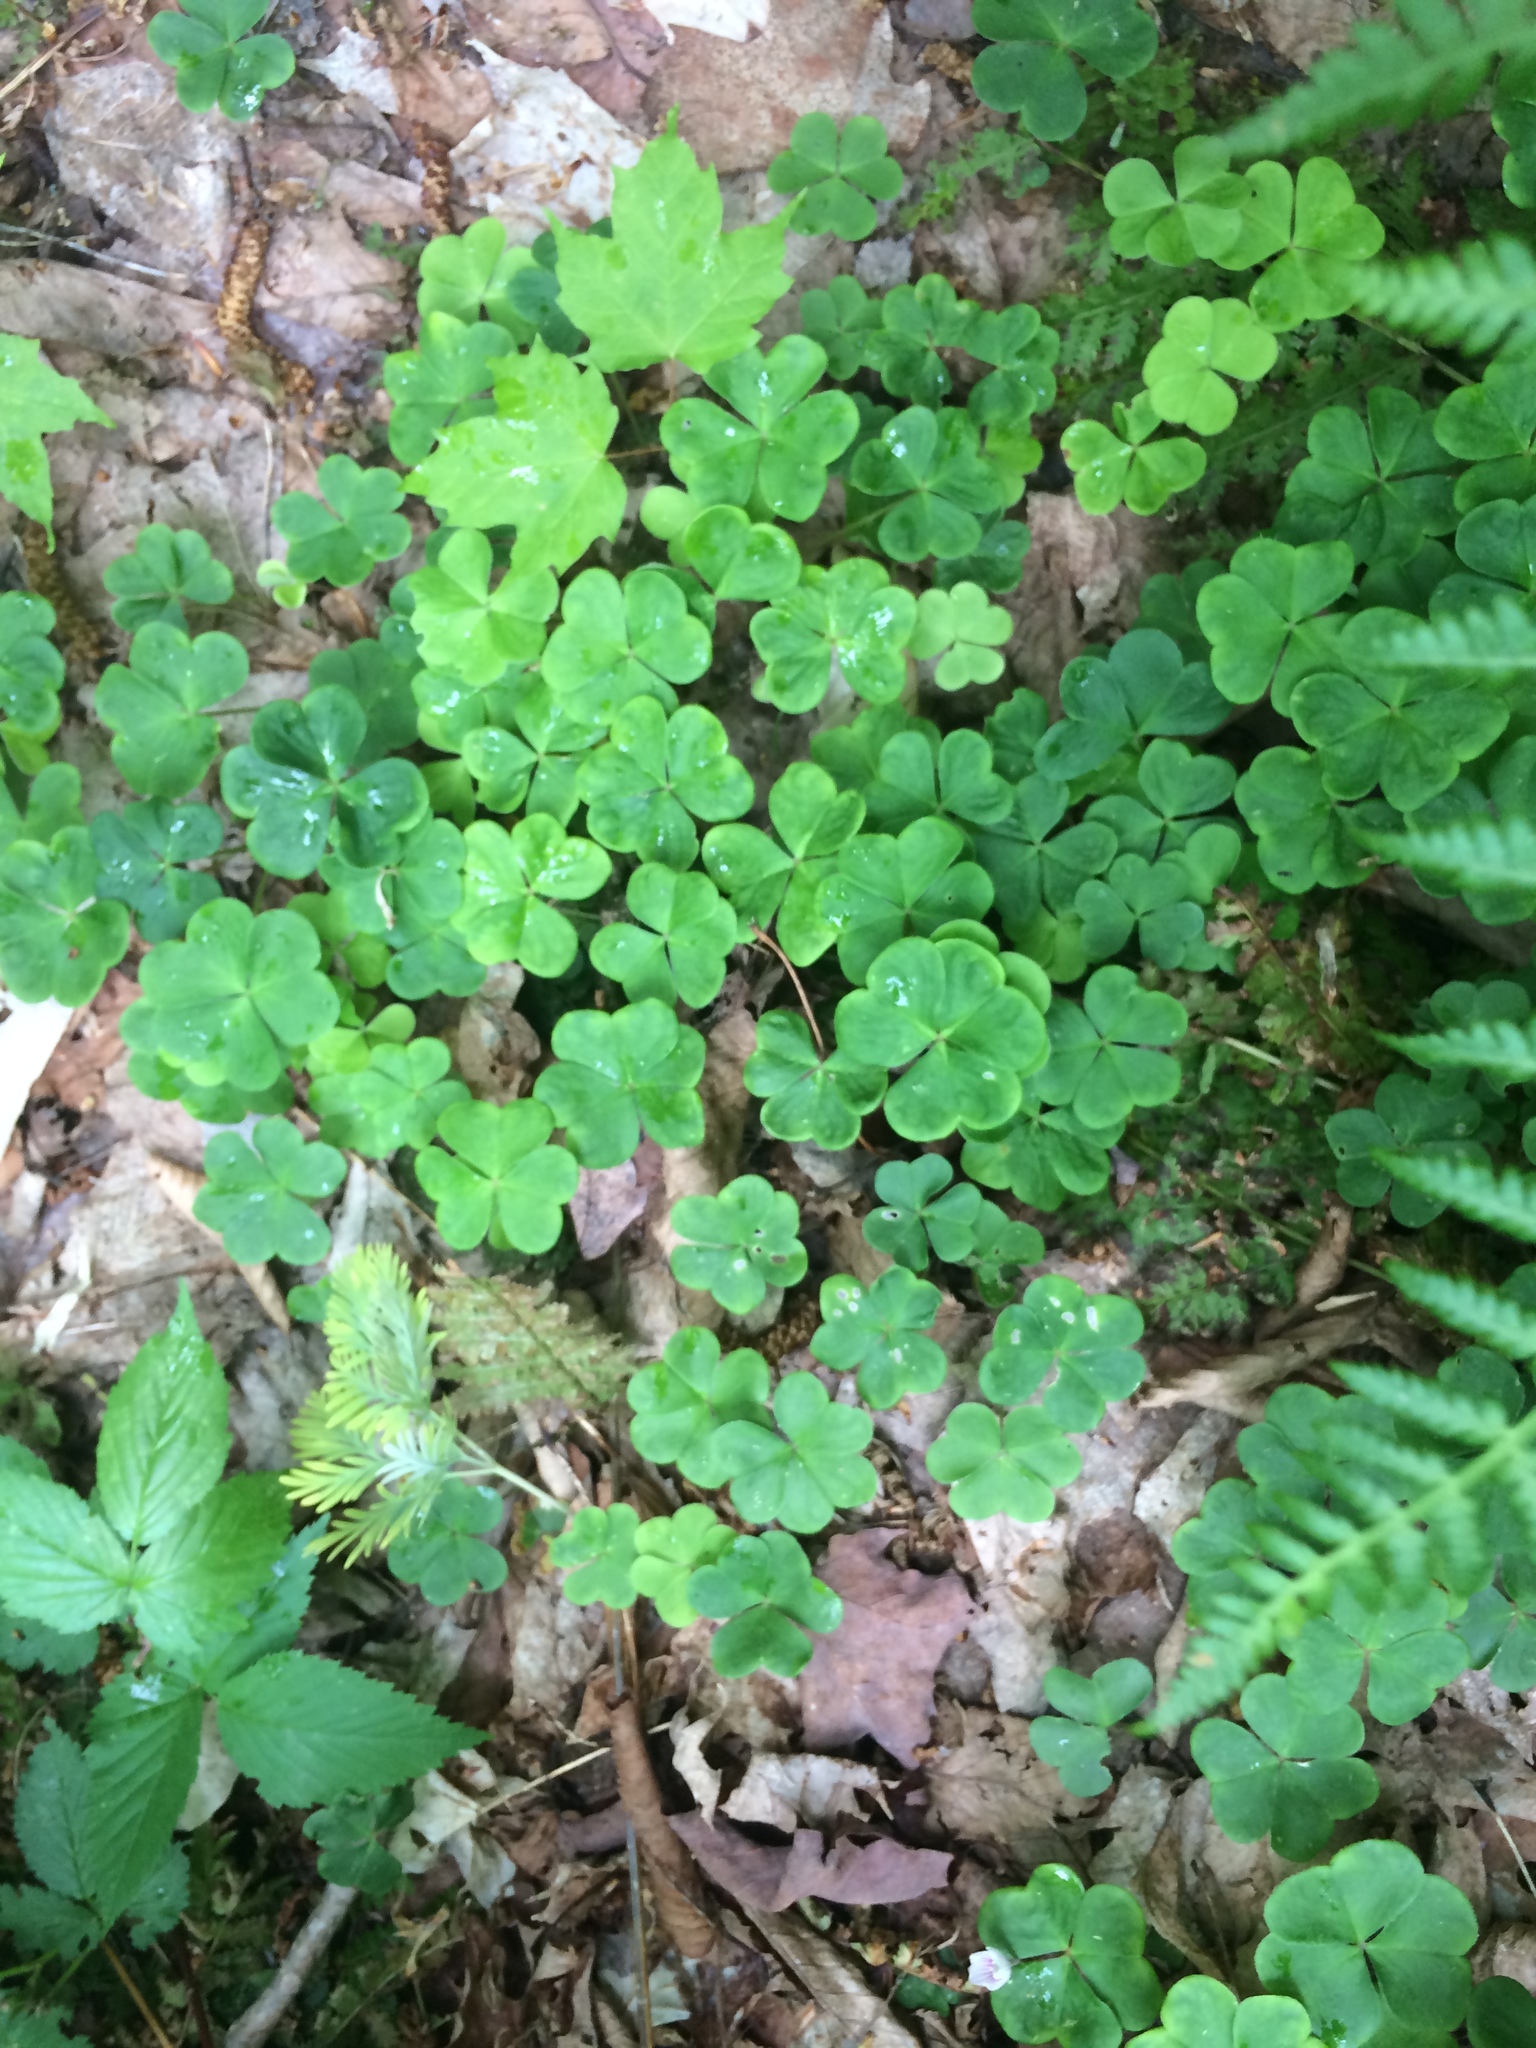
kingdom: Plantae
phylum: Tracheophyta
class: Magnoliopsida
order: Oxalidales
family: Oxalidaceae
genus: Oxalis
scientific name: Oxalis montana
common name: American wood-sorrel
